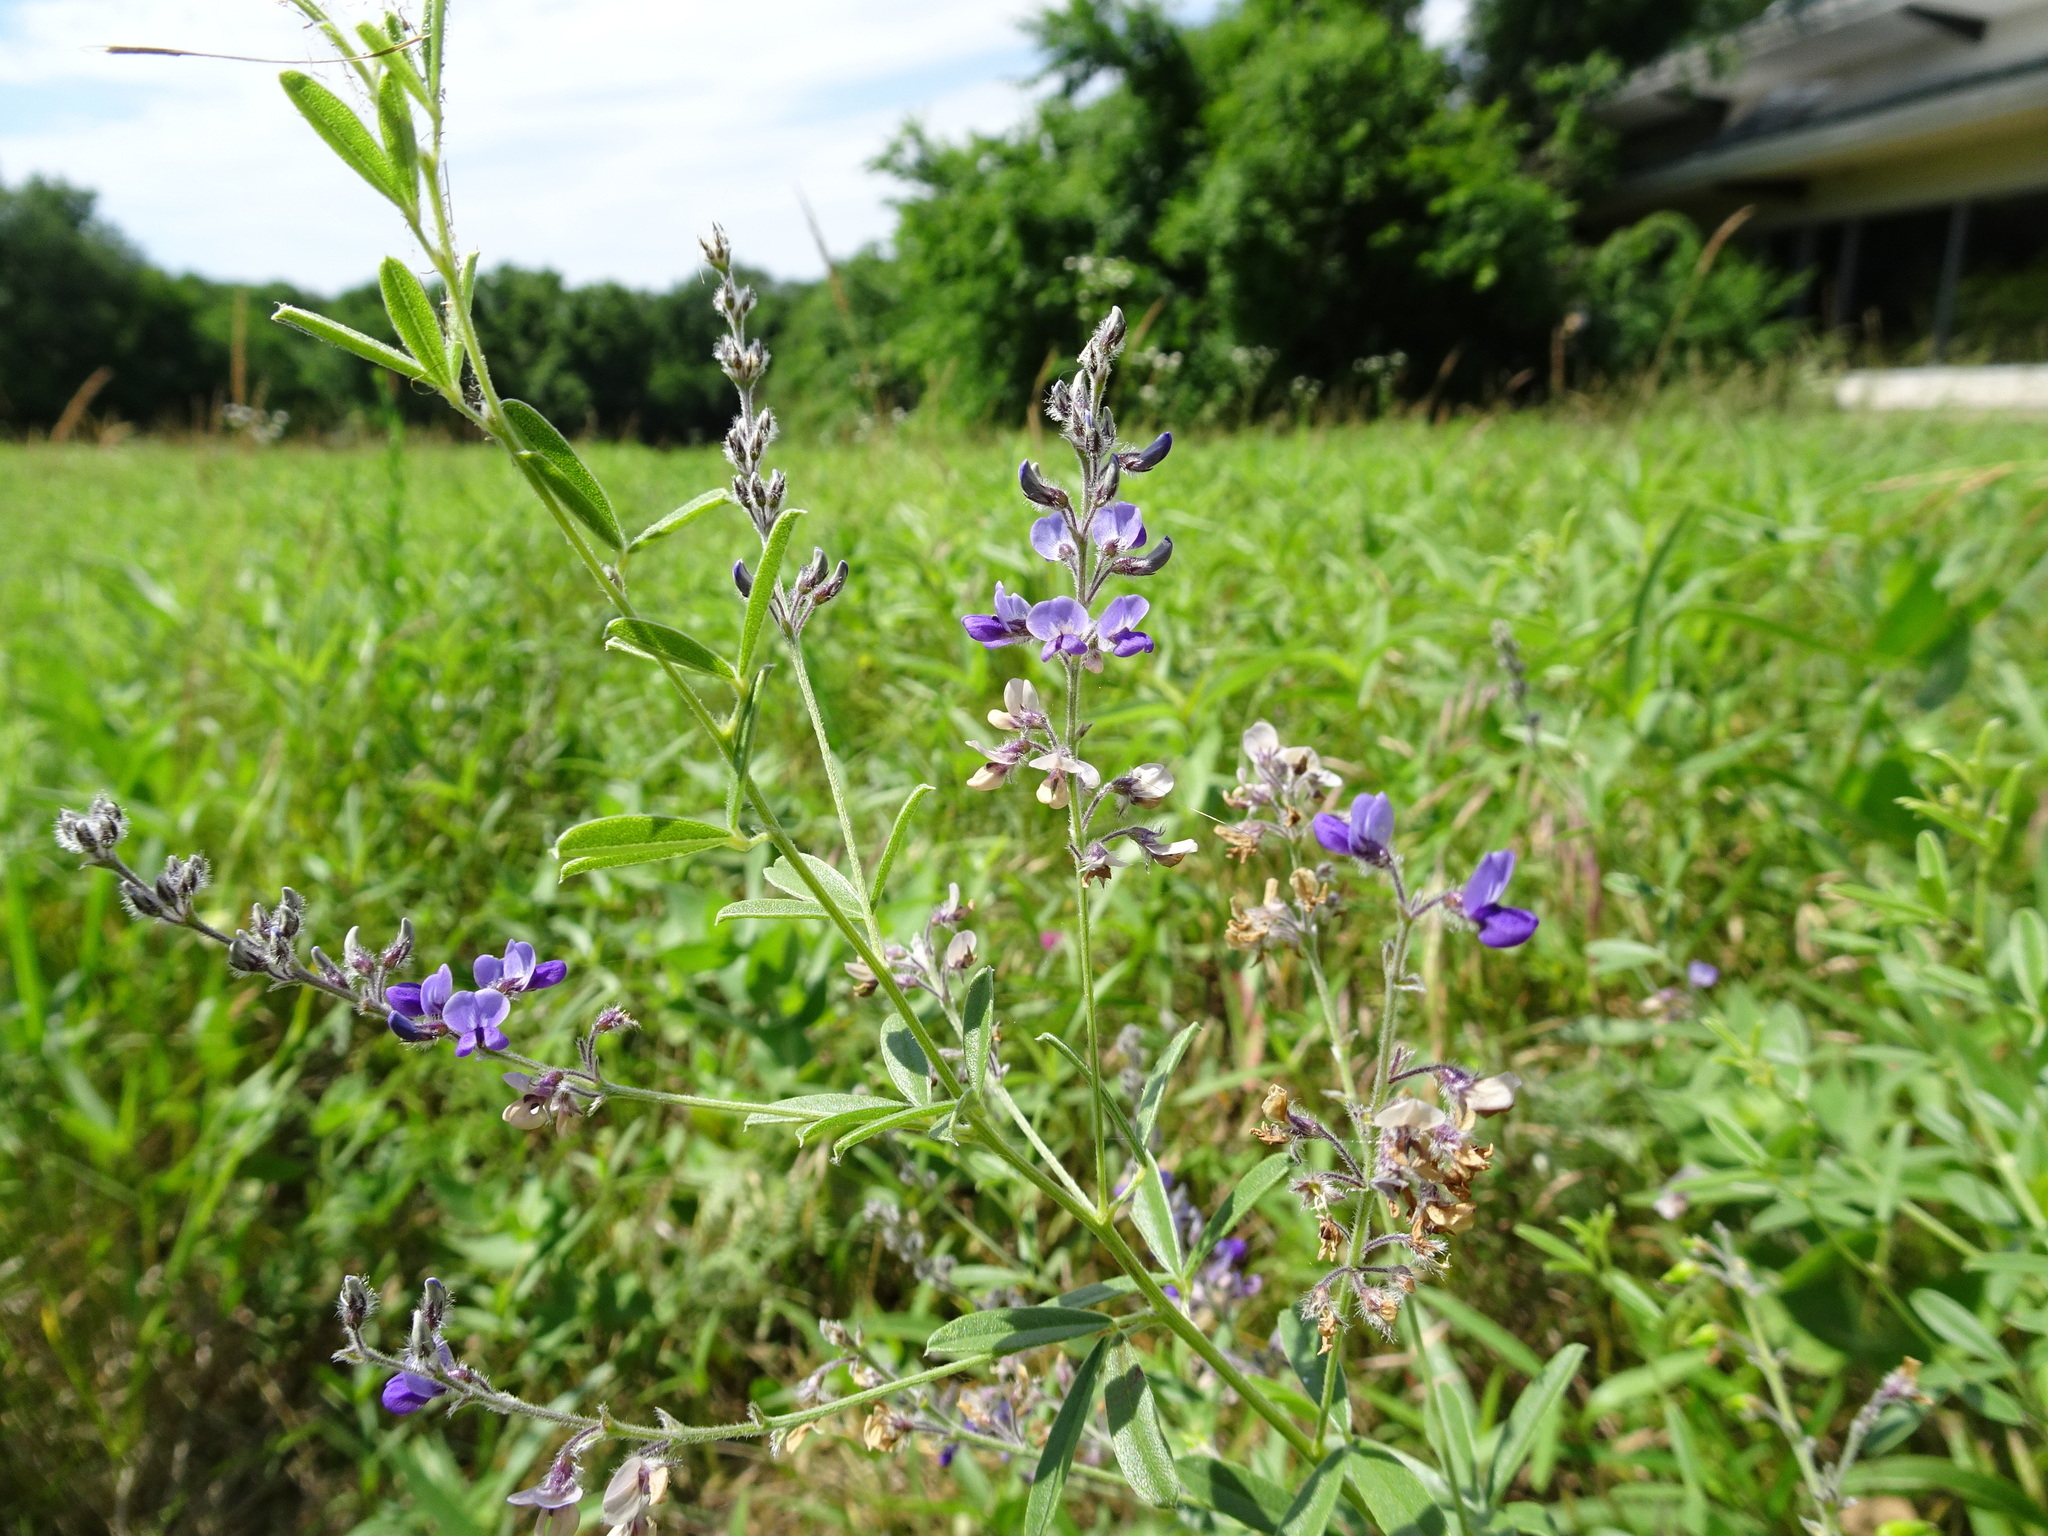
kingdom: Plantae
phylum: Tracheophyta
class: Magnoliopsida
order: Fabales
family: Fabaceae
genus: Pediomelum
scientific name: Pediomelum tenuiflorum
